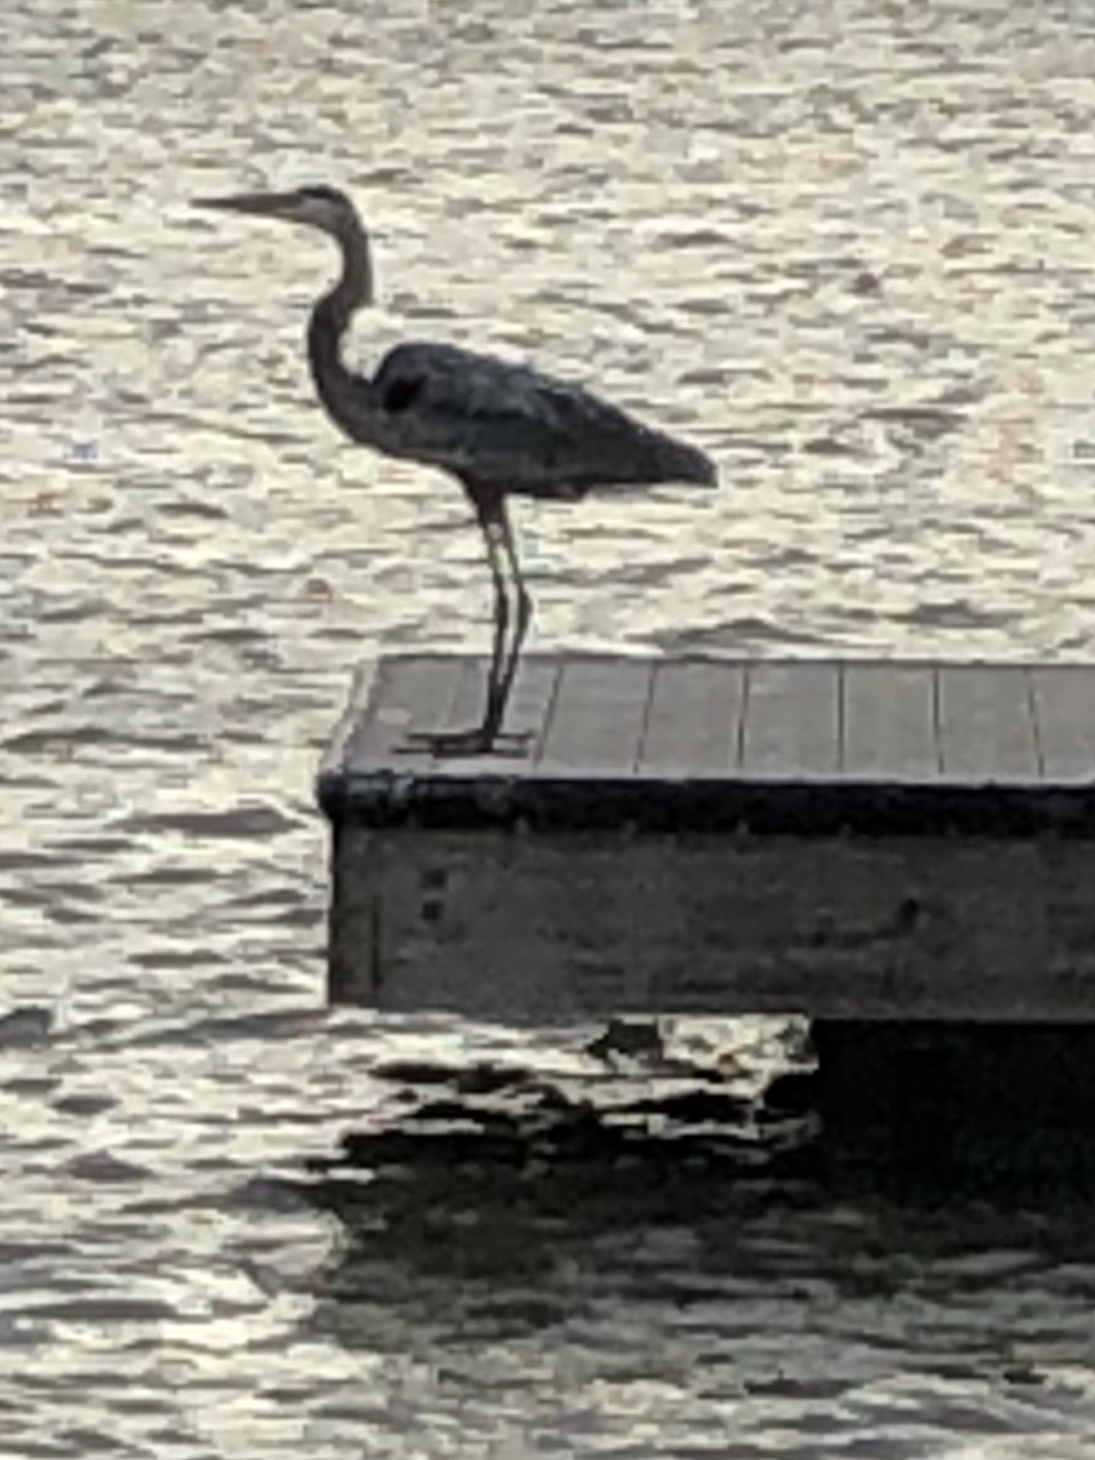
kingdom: Animalia
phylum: Chordata
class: Aves
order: Pelecaniformes
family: Ardeidae
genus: Ardea
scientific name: Ardea herodias
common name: Great blue heron
